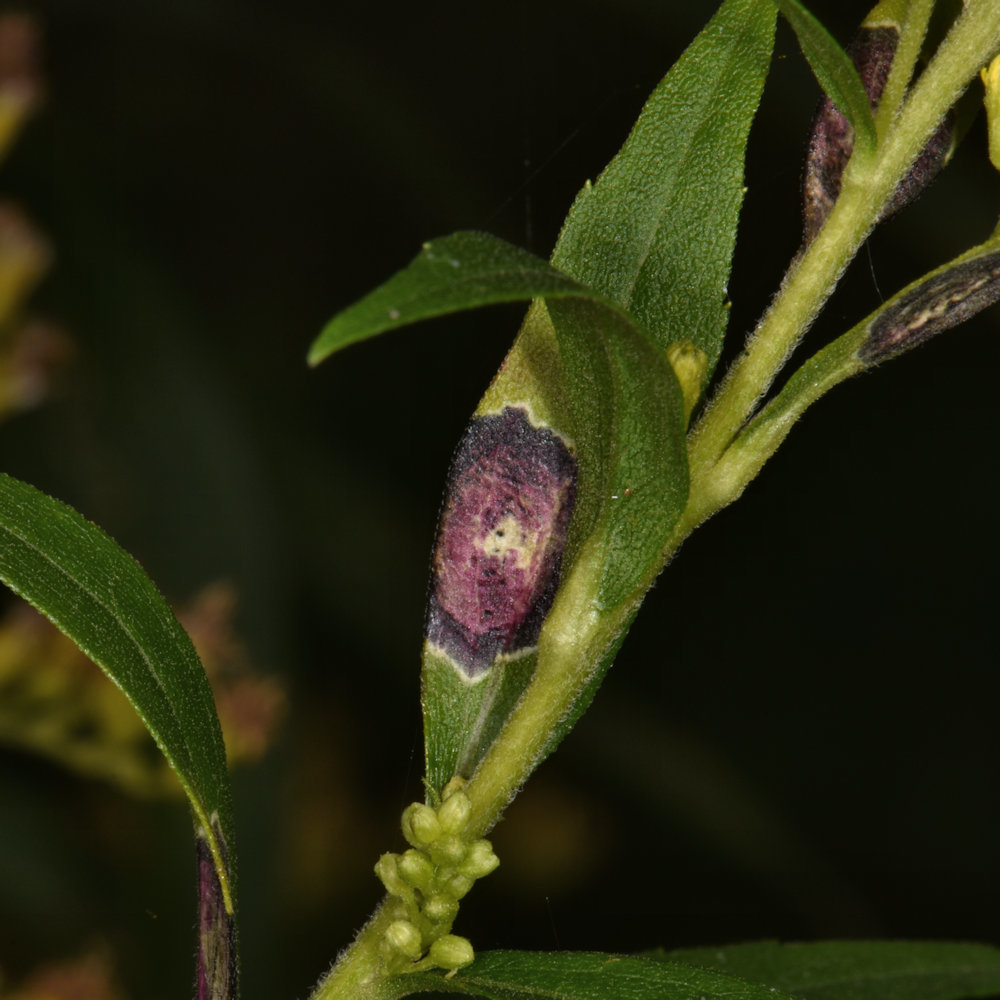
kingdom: Animalia
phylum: Arthropoda
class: Insecta
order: Diptera
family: Cecidomyiidae
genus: Asteromyia
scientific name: Asteromyia carbonifera
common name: Carbonifera goldenrod gall midge
